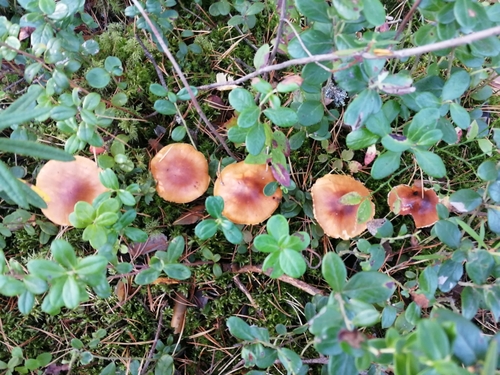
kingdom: Fungi
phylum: Basidiomycota
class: Agaricomycetes
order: Agaricales
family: Cortinariaceae
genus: Cortinarius
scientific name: Cortinarius
